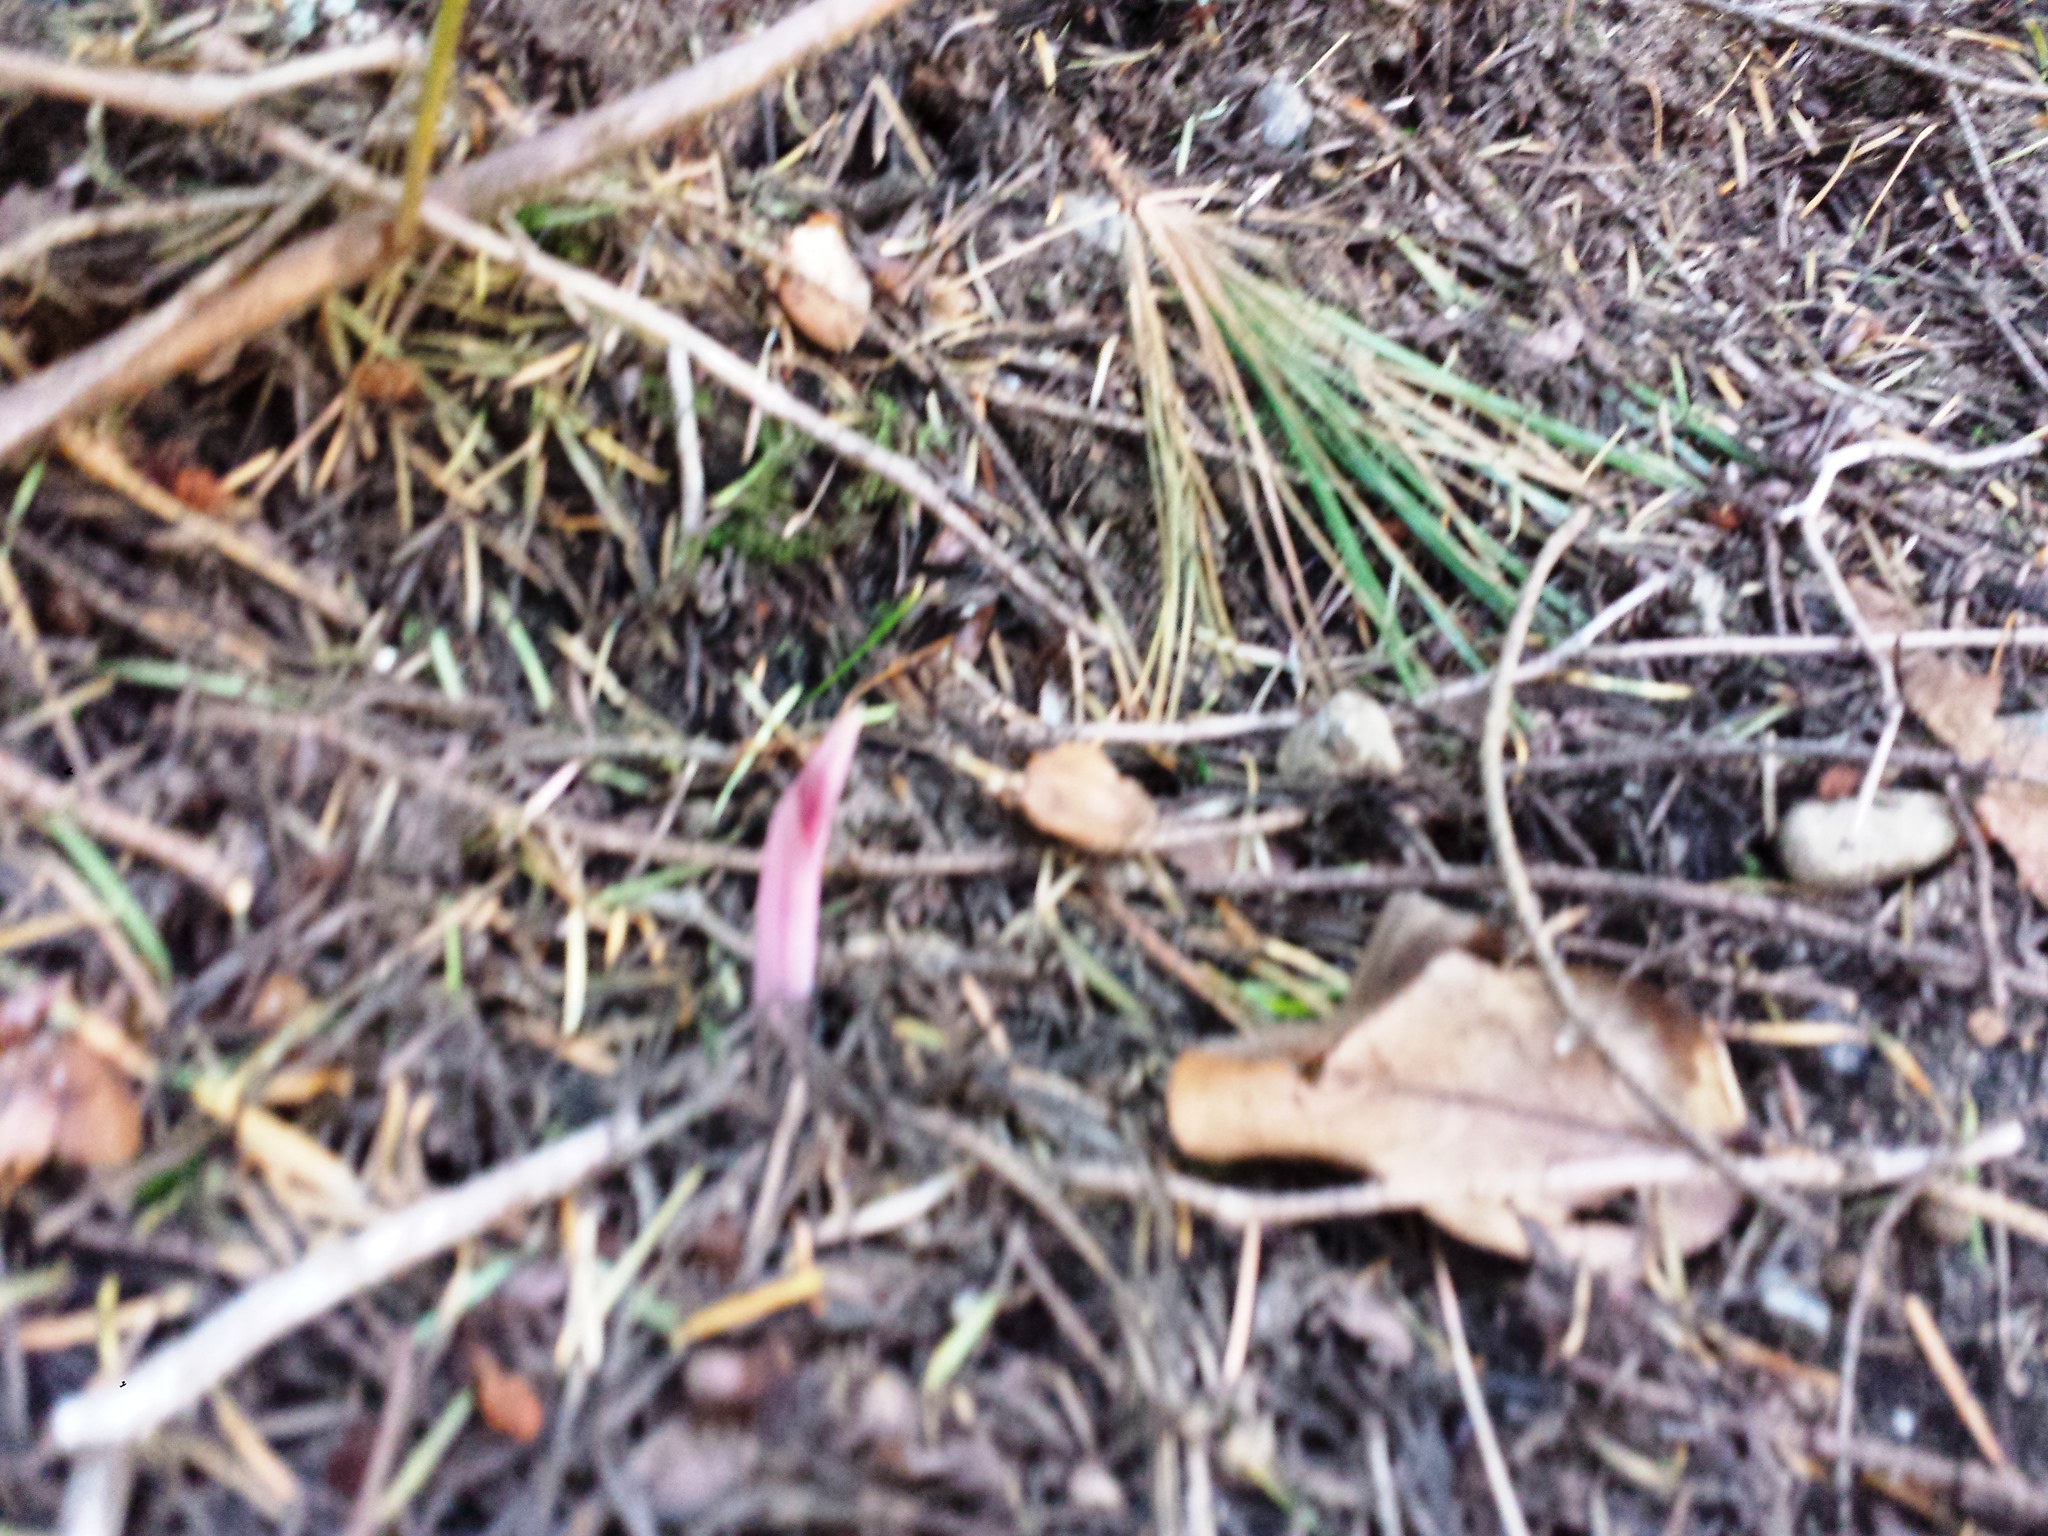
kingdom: Plantae
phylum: Tracheophyta
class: Liliopsida
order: Asparagales
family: Orchidaceae
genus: Corallorhiza
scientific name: Corallorhiza maculata
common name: Spotted coralroot
